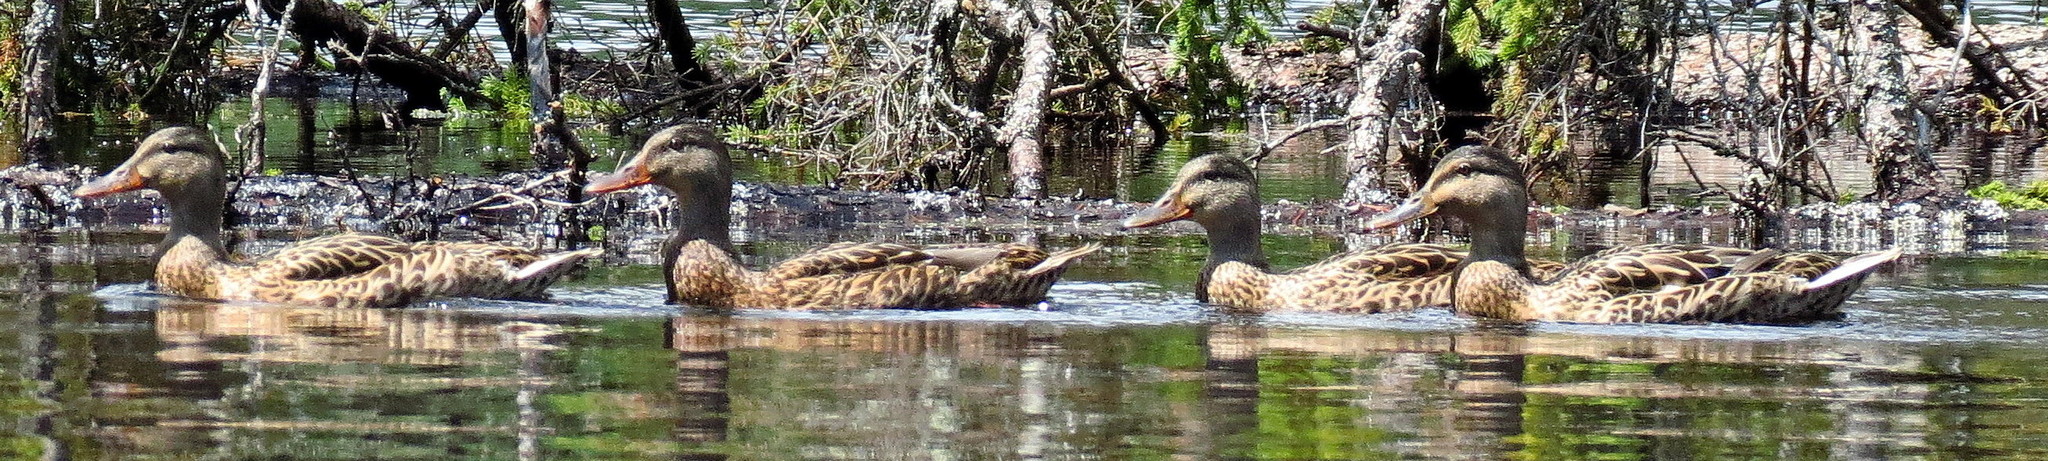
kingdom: Animalia
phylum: Chordata
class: Aves
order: Anseriformes
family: Anatidae
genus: Anas
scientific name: Anas platyrhynchos
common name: Mallard
